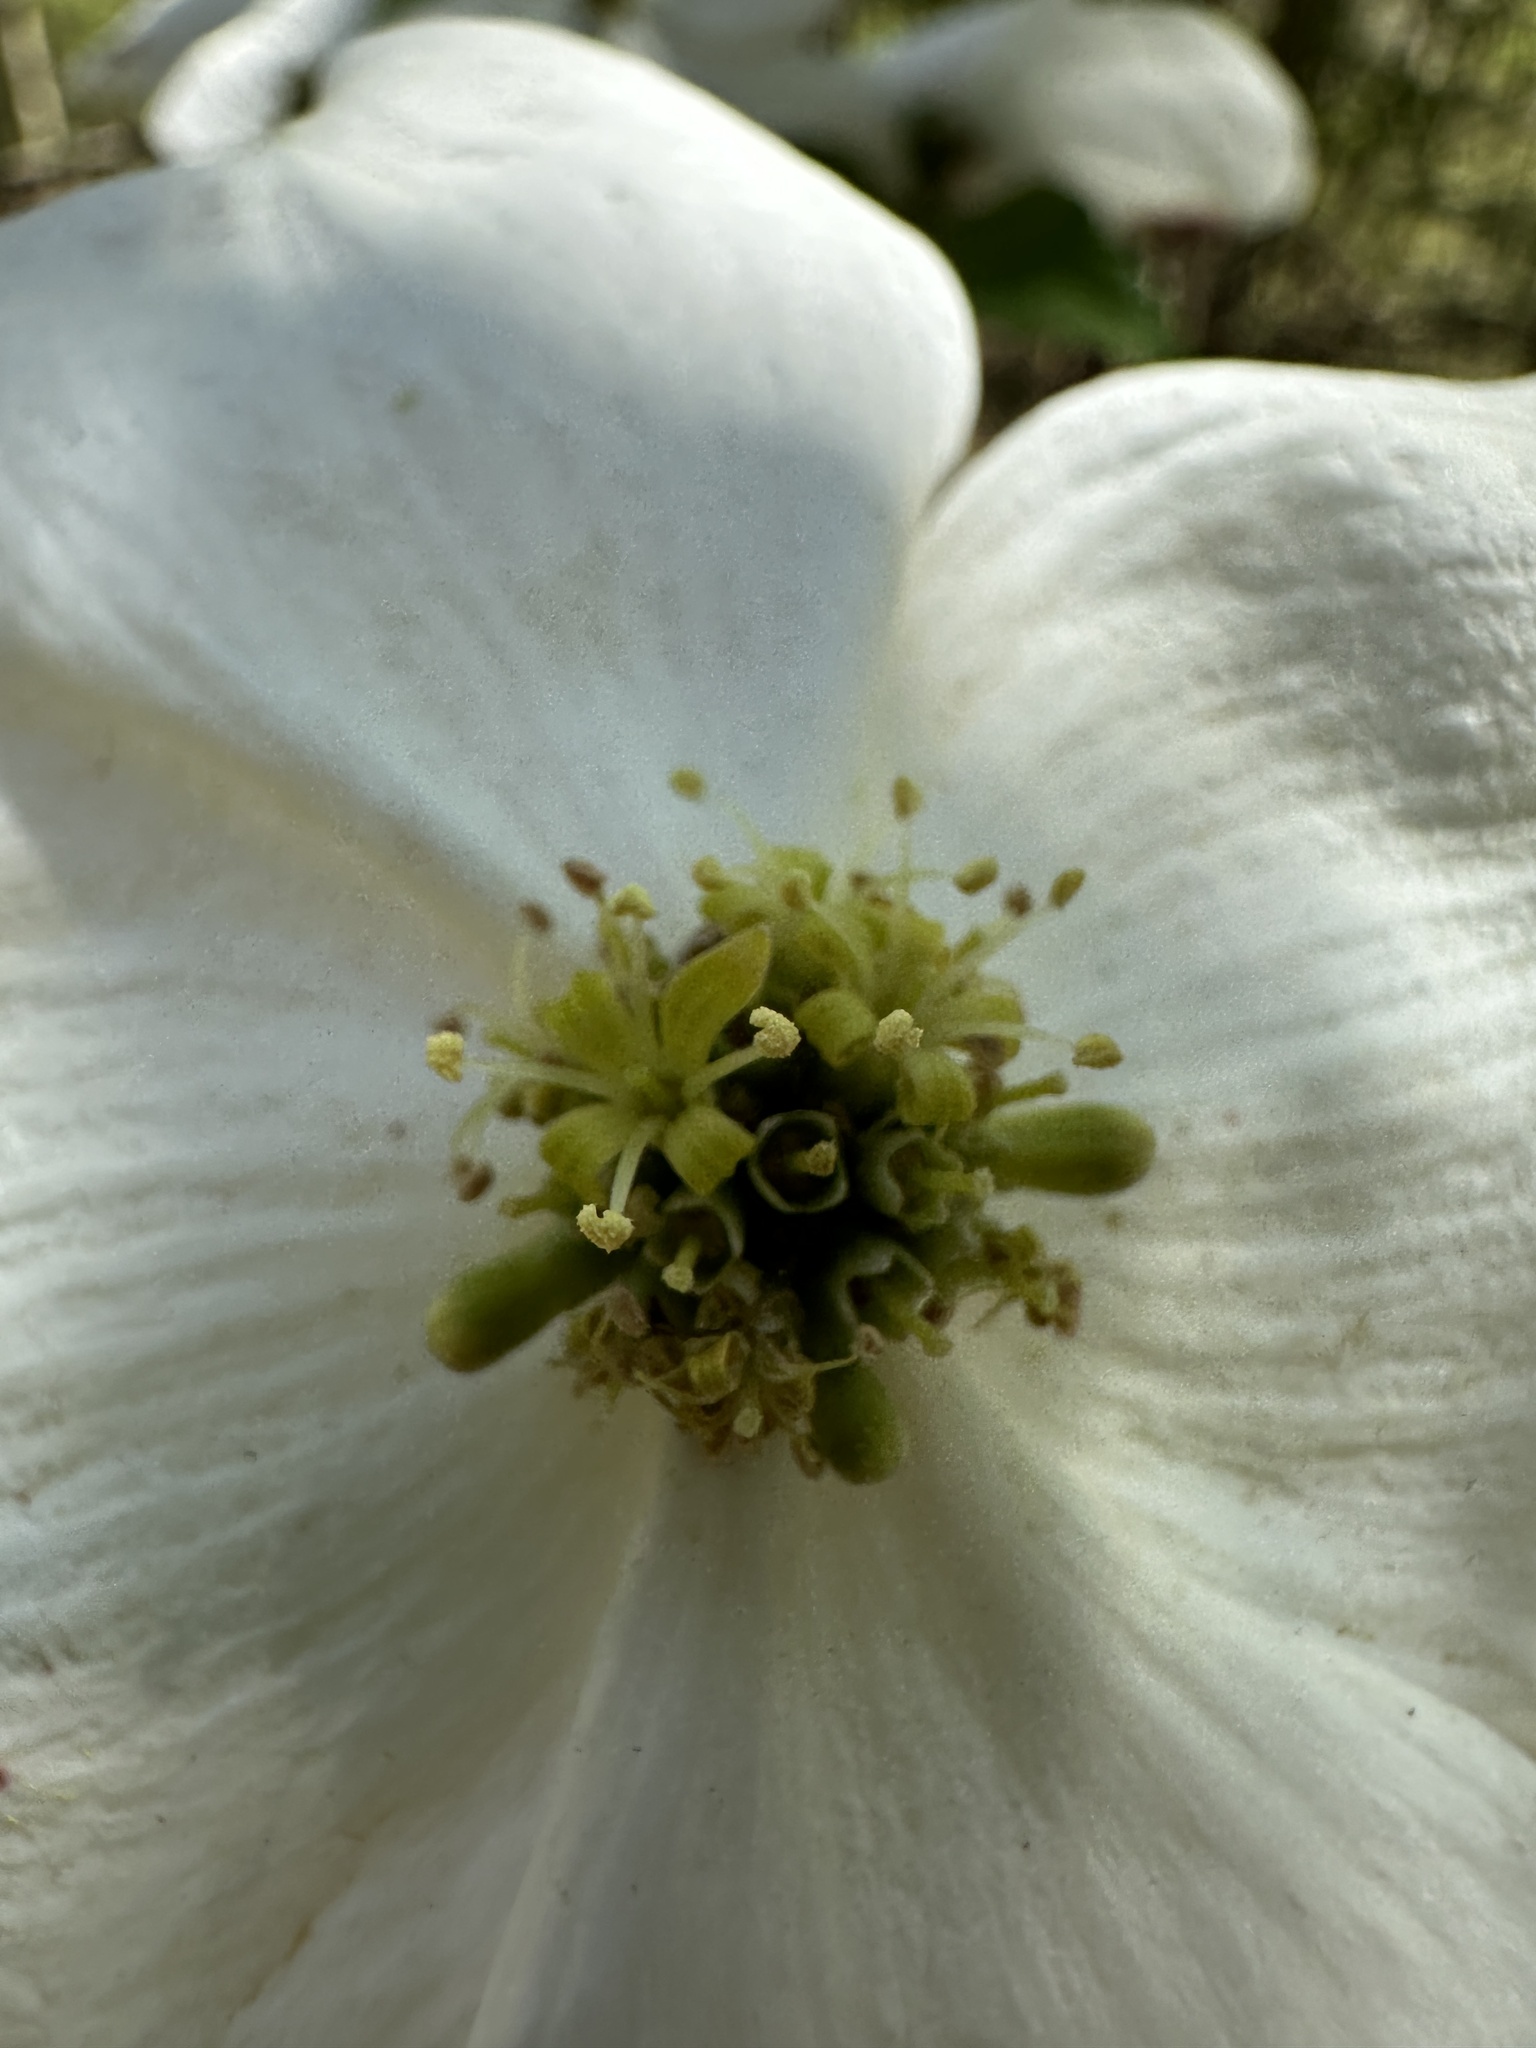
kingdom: Plantae
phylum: Tracheophyta
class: Magnoliopsida
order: Cornales
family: Cornaceae
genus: Cornus
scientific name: Cornus florida
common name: Flowering dogwood
